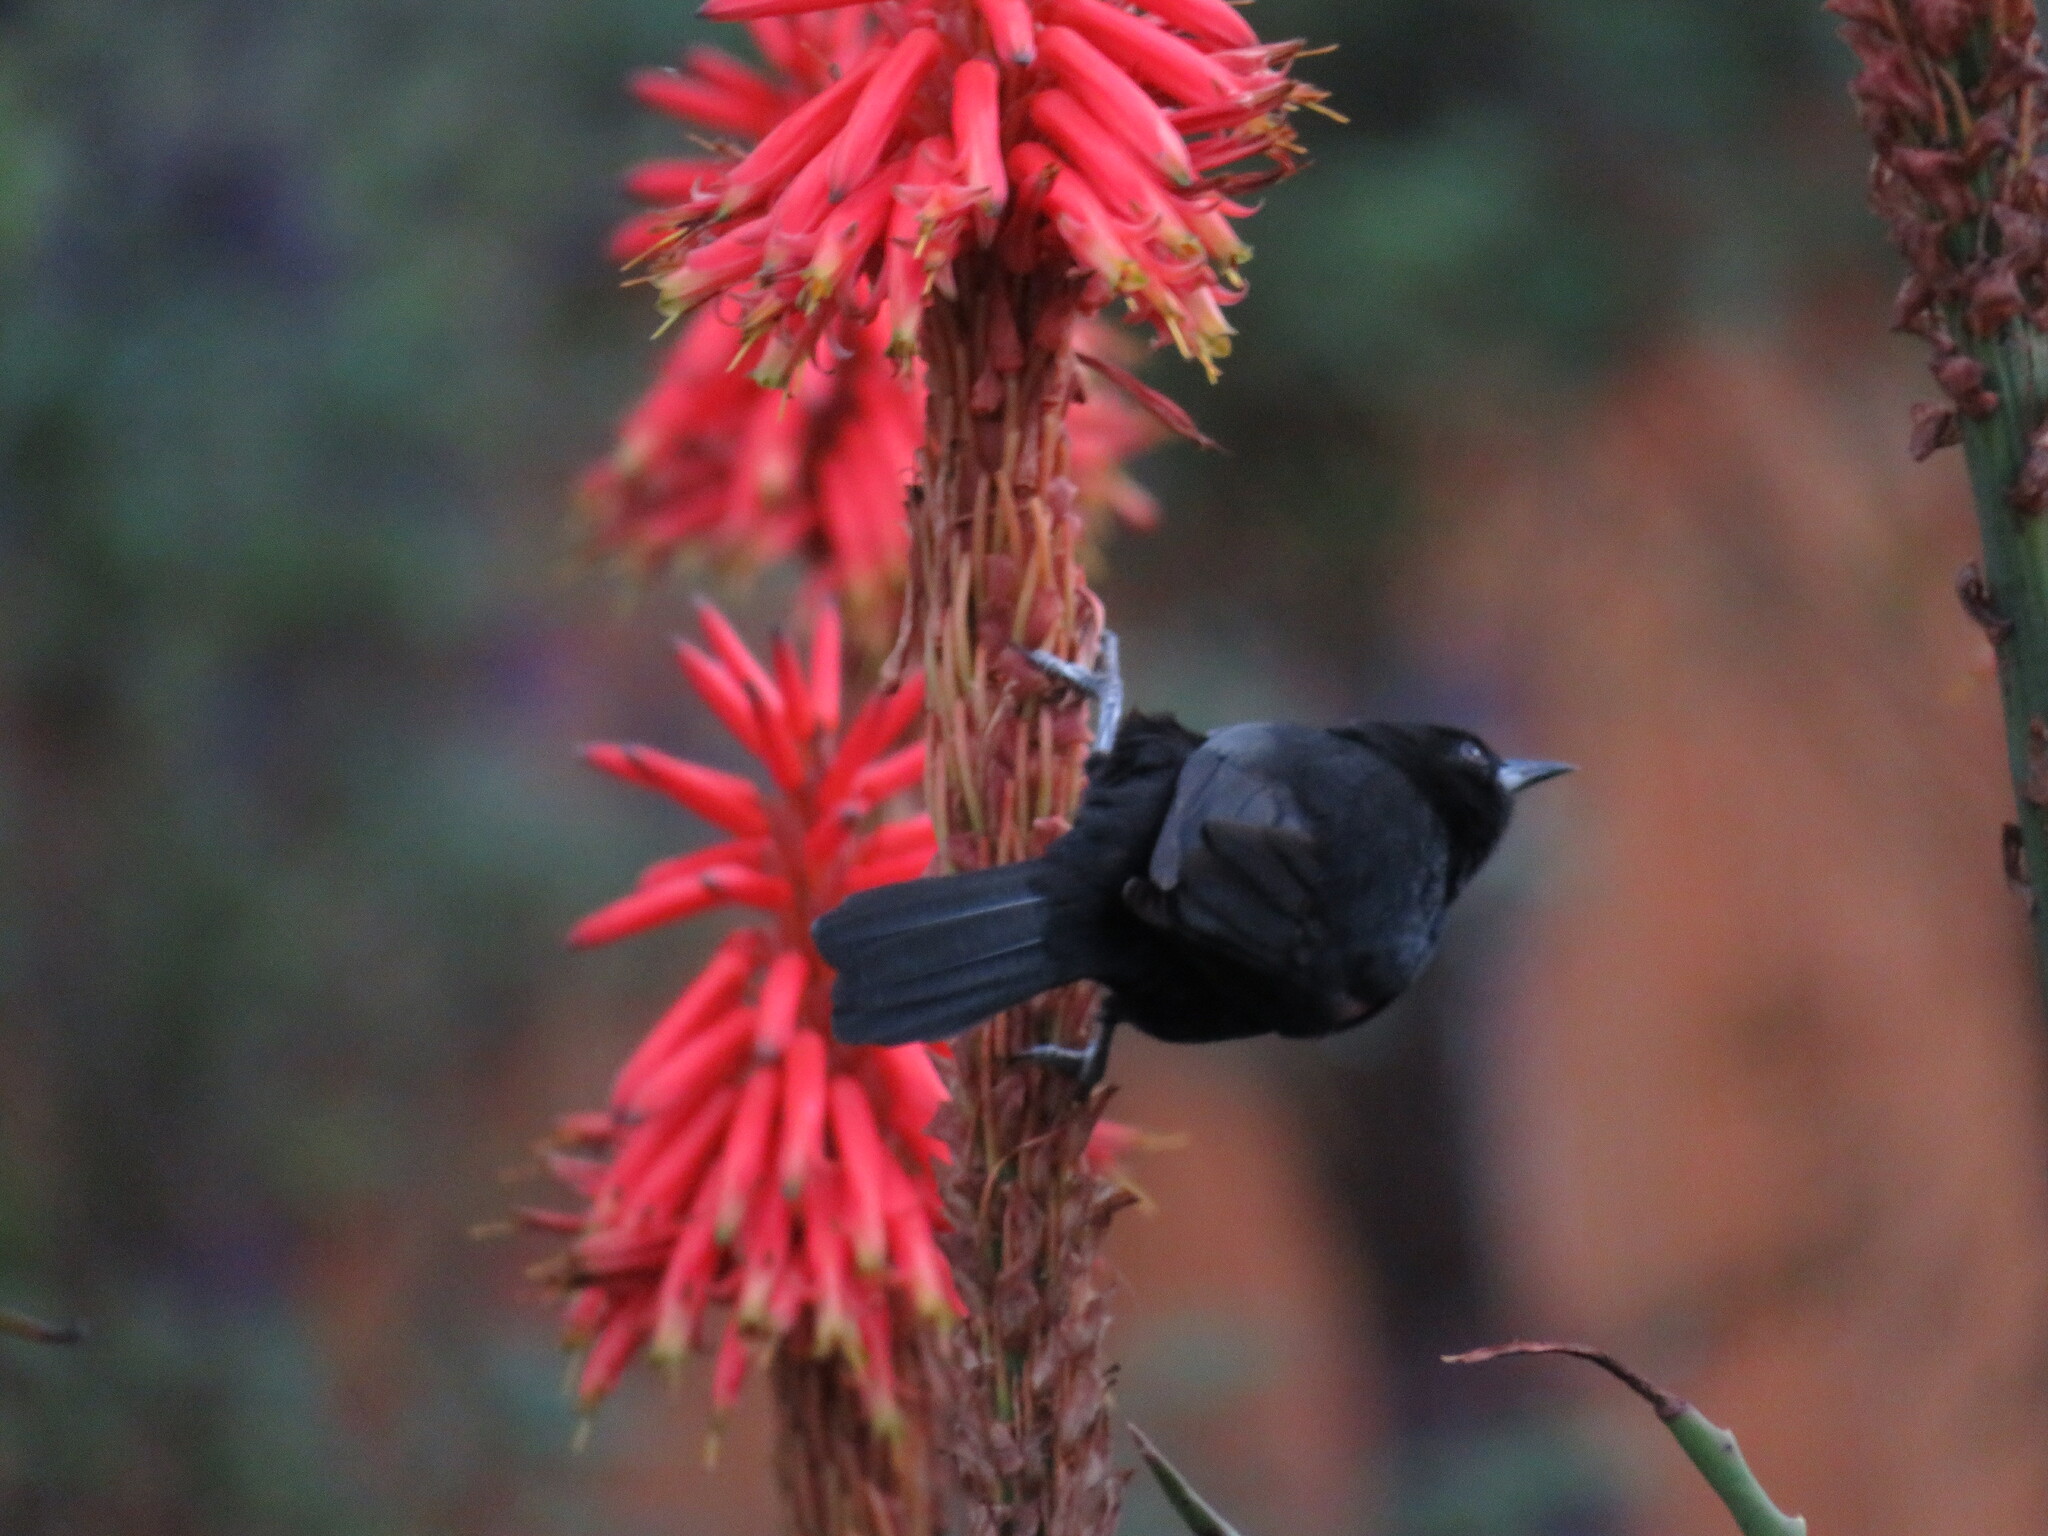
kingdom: Animalia
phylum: Chordata
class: Aves
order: Passeriformes
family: Icteridae
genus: Icterus
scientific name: Icterus cayanensis
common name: Epaulet oriole
